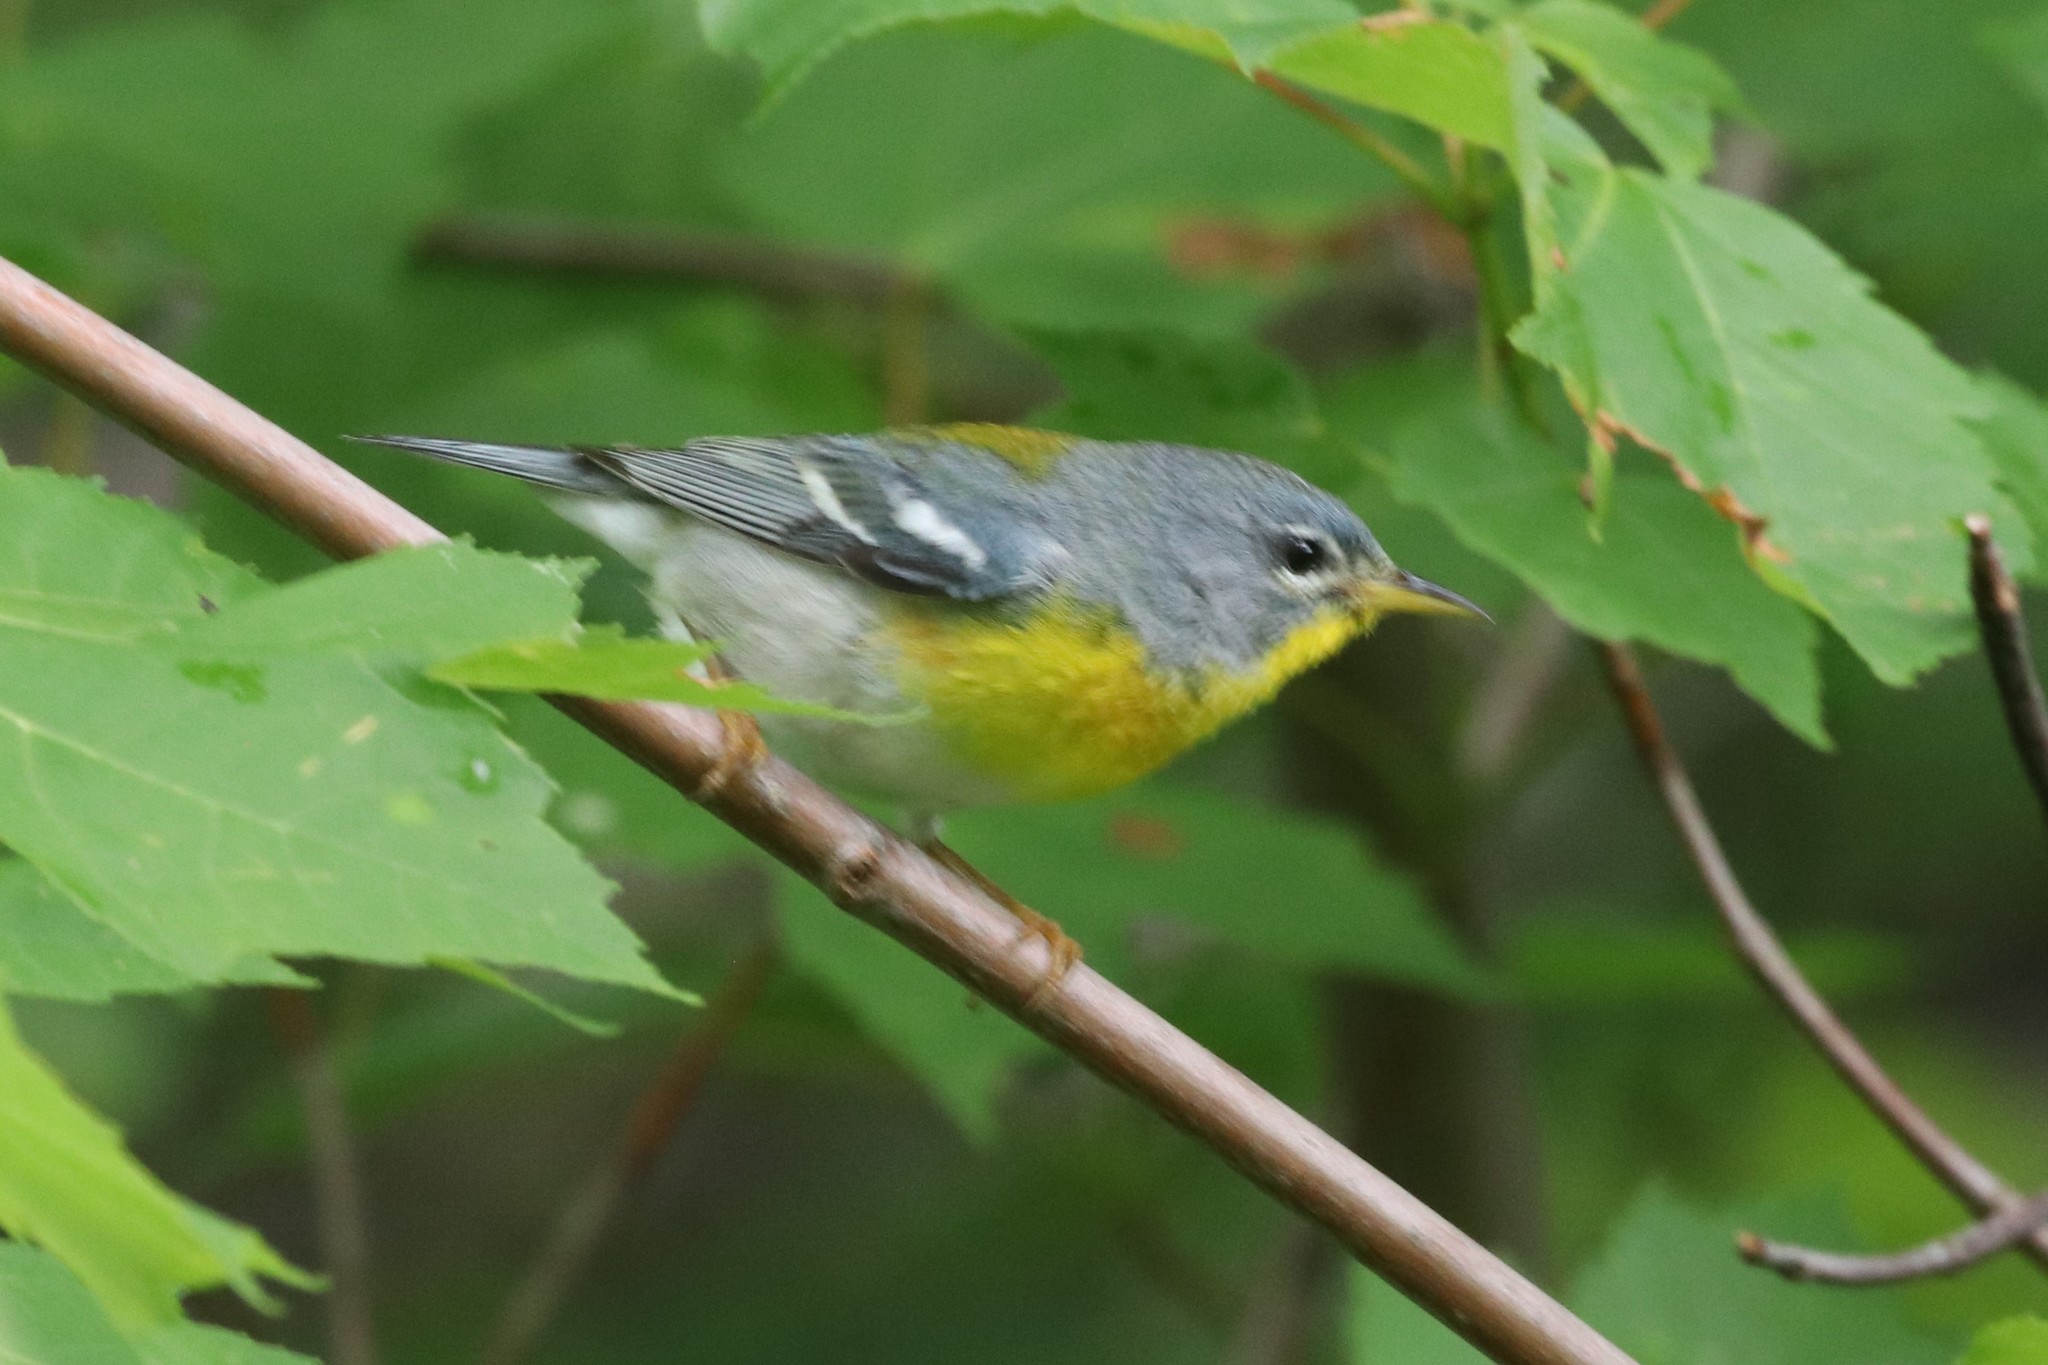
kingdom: Animalia
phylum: Chordata
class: Aves
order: Passeriformes
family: Parulidae
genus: Setophaga
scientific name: Setophaga americana
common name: Northern parula
